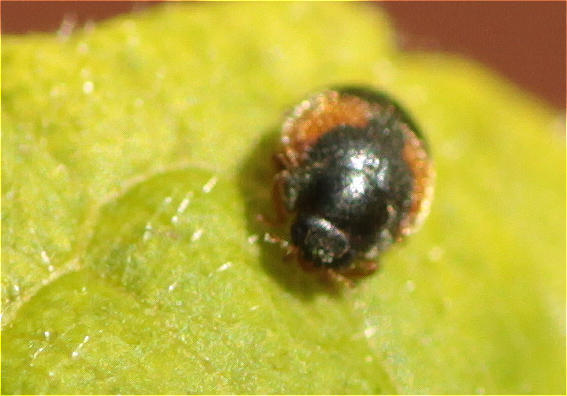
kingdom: Animalia
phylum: Arthropoda
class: Insecta
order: Coleoptera
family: Coccinellidae
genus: Scymnus
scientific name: Scymnus interruptus
